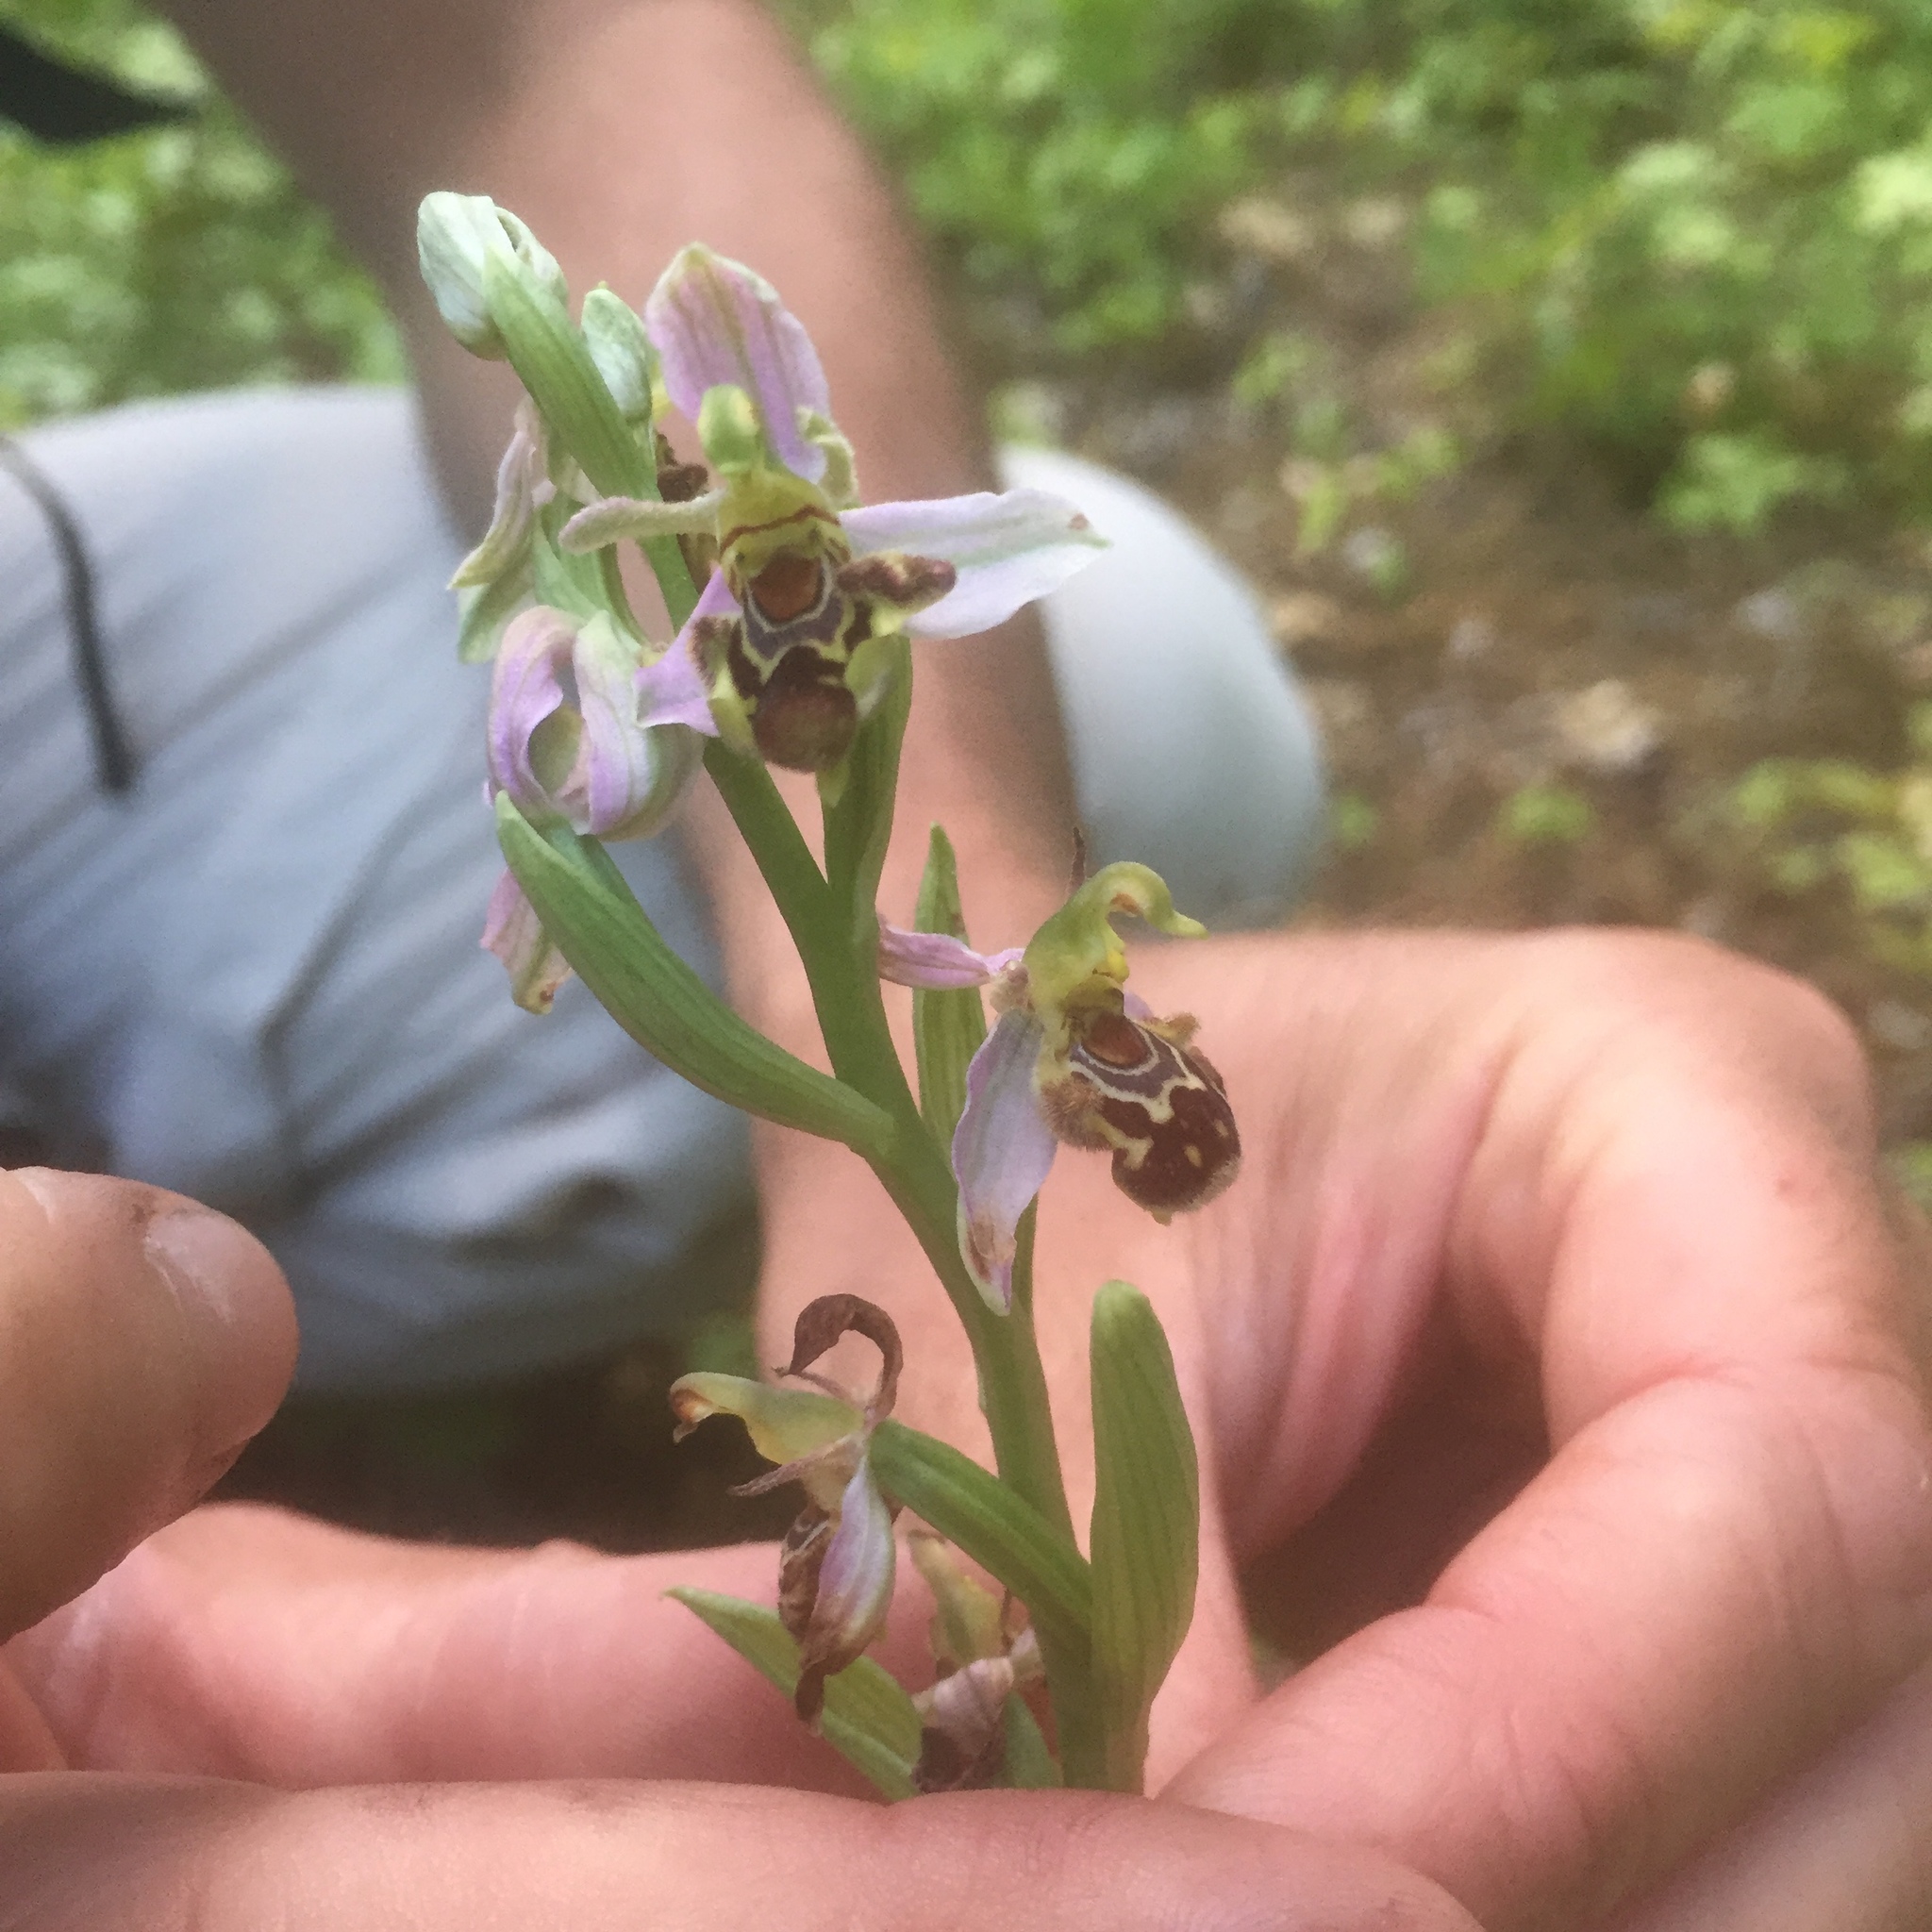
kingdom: Plantae
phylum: Tracheophyta
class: Liliopsida
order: Asparagales
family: Orchidaceae
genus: Ophrys
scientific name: Ophrys apifera
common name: Bee orchid
